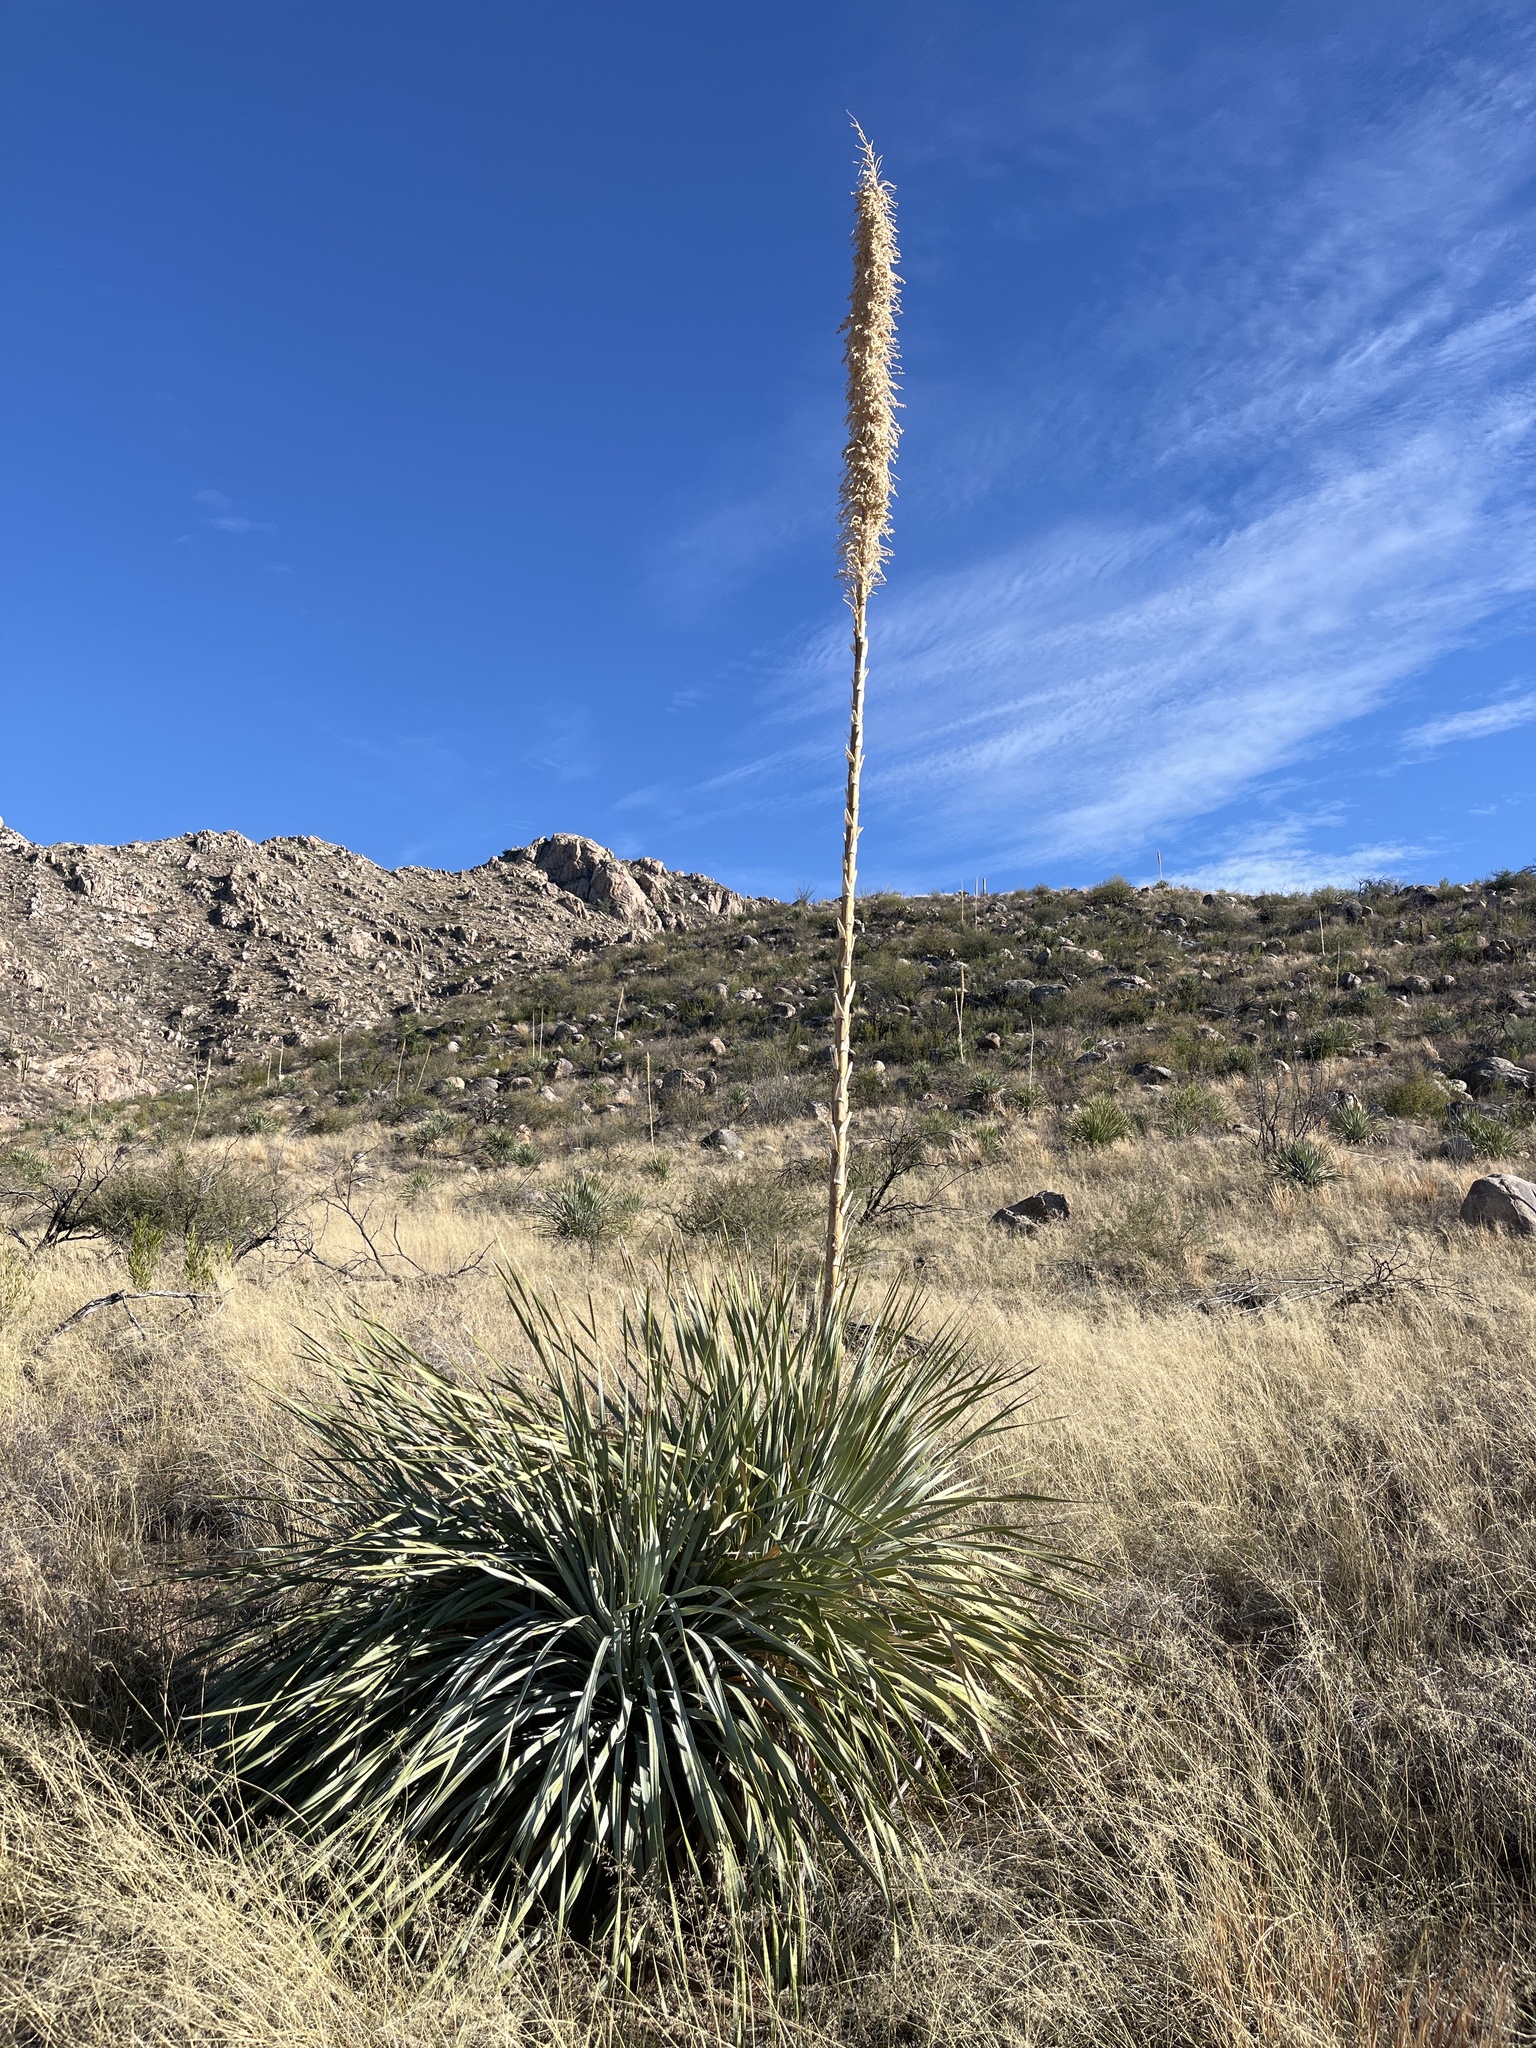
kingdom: Plantae
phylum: Tracheophyta
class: Liliopsida
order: Asparagales
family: Asparagaceae
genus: Dasylirion
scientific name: Dasylirion wheeleri
